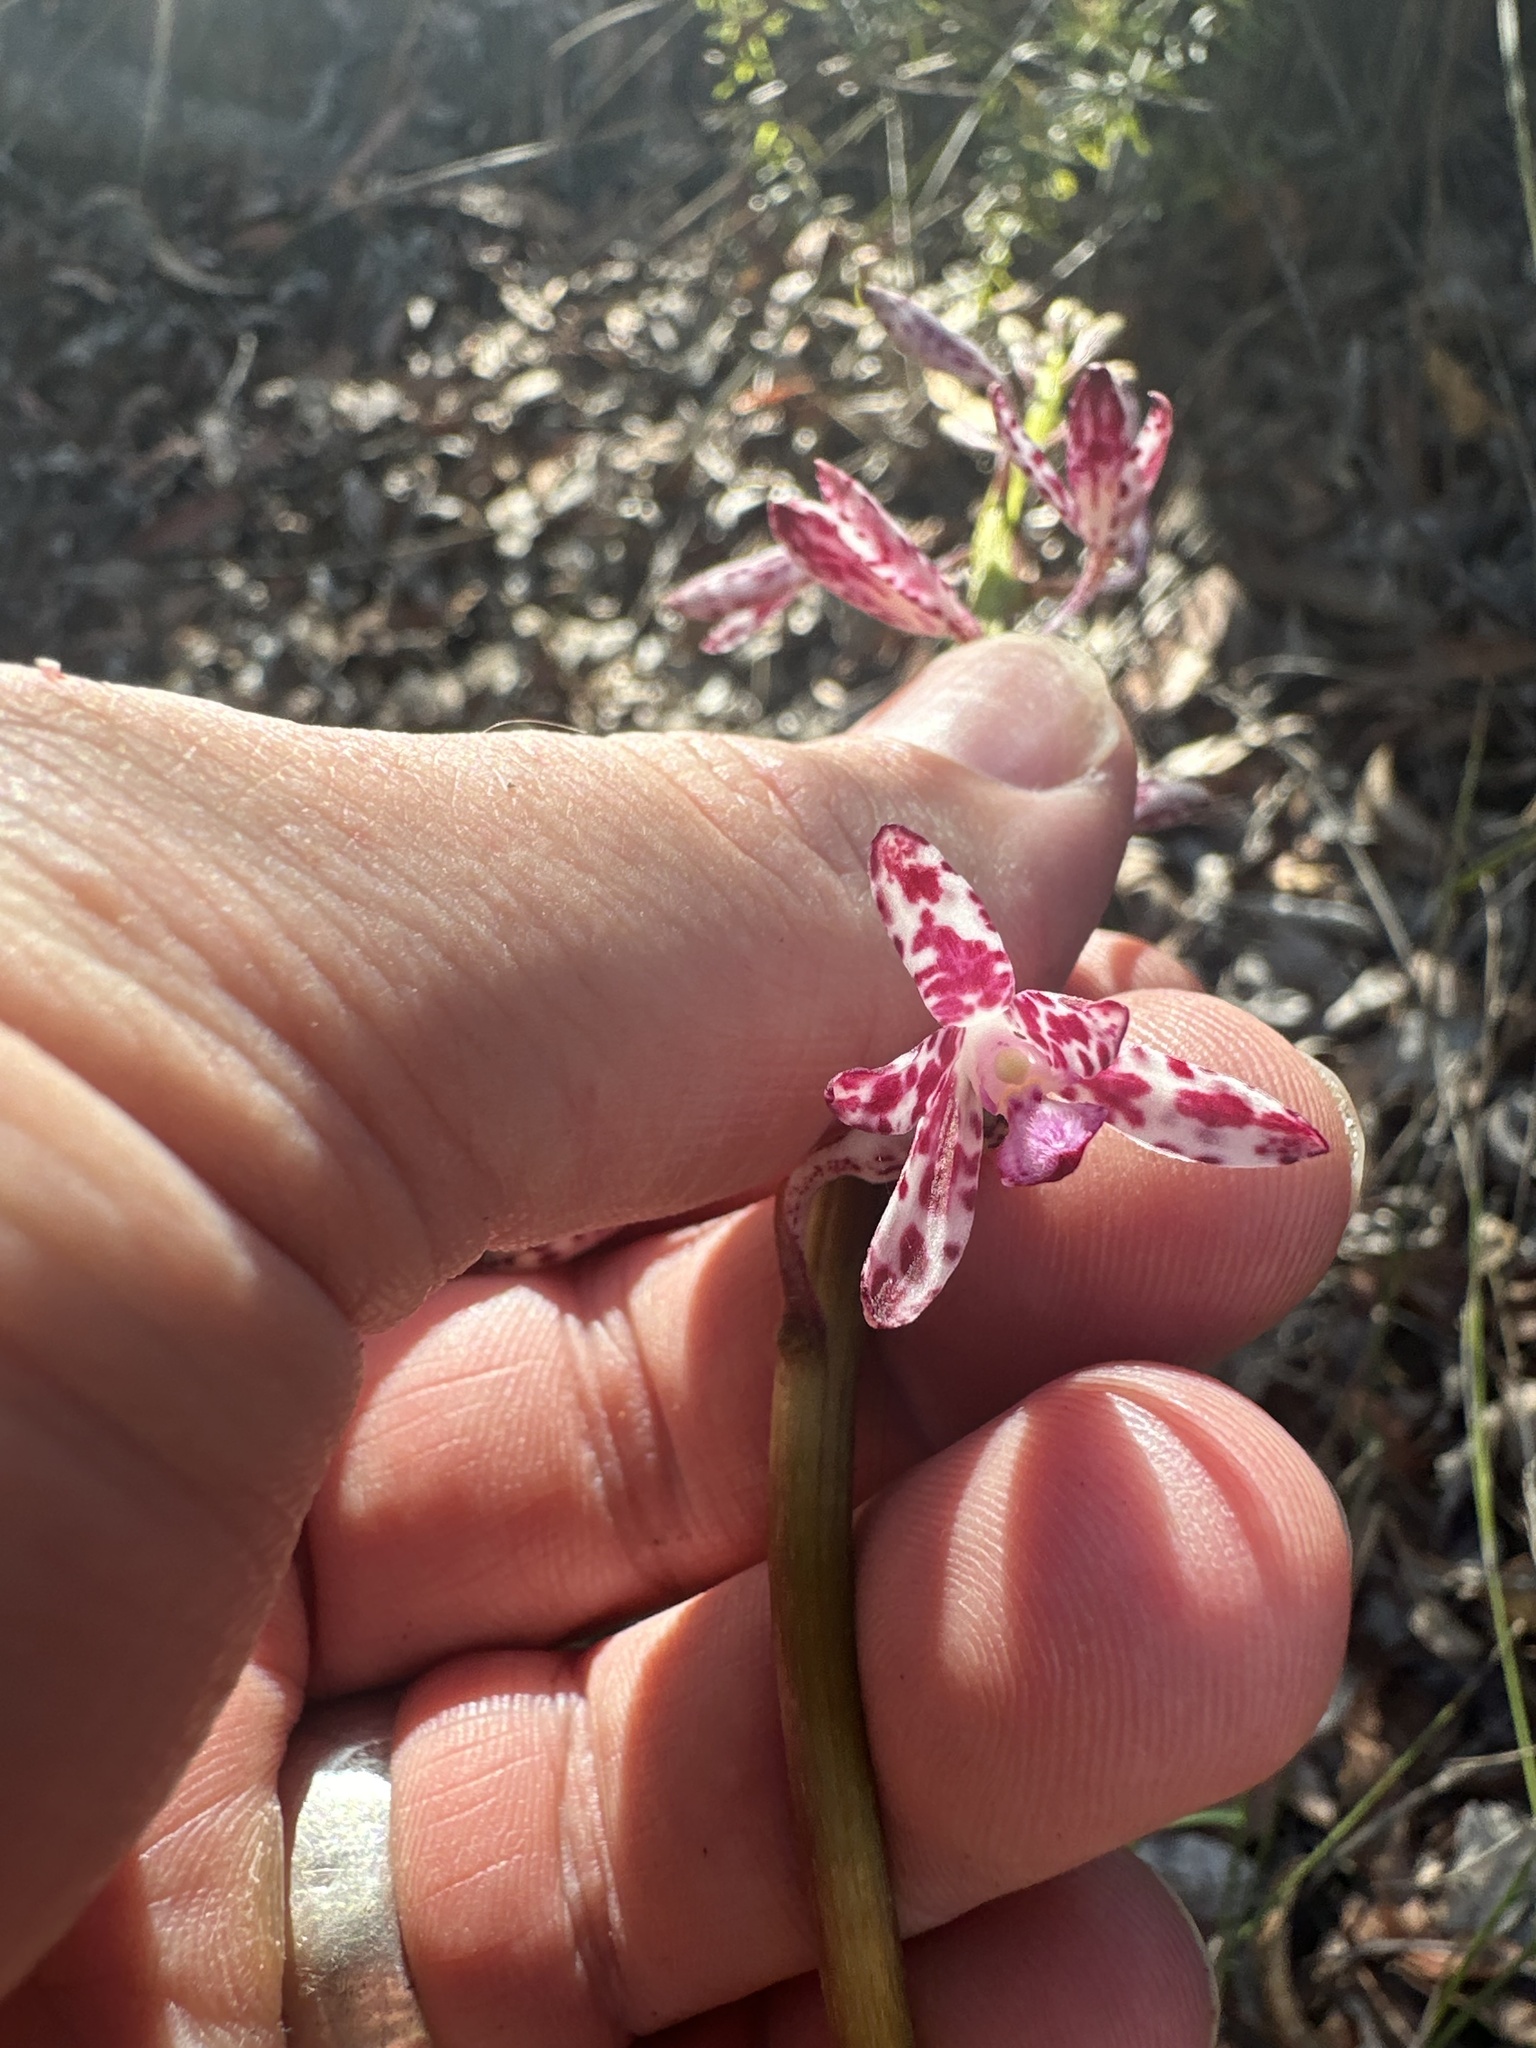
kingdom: Plantae
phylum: Tracheophyta
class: Liliopsida
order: Asparagales
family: Orchidaceae
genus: Dipodium
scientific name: Dipodium variegatum
